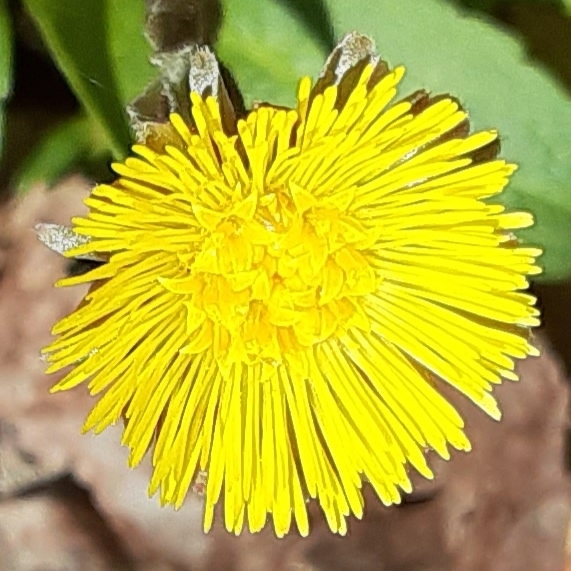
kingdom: Plantae
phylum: Tracheophyta
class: Magnoliopsida
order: Asterales
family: Asteraceae
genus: Tussilago
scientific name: Tussilago farfara
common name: Coltsfoot
